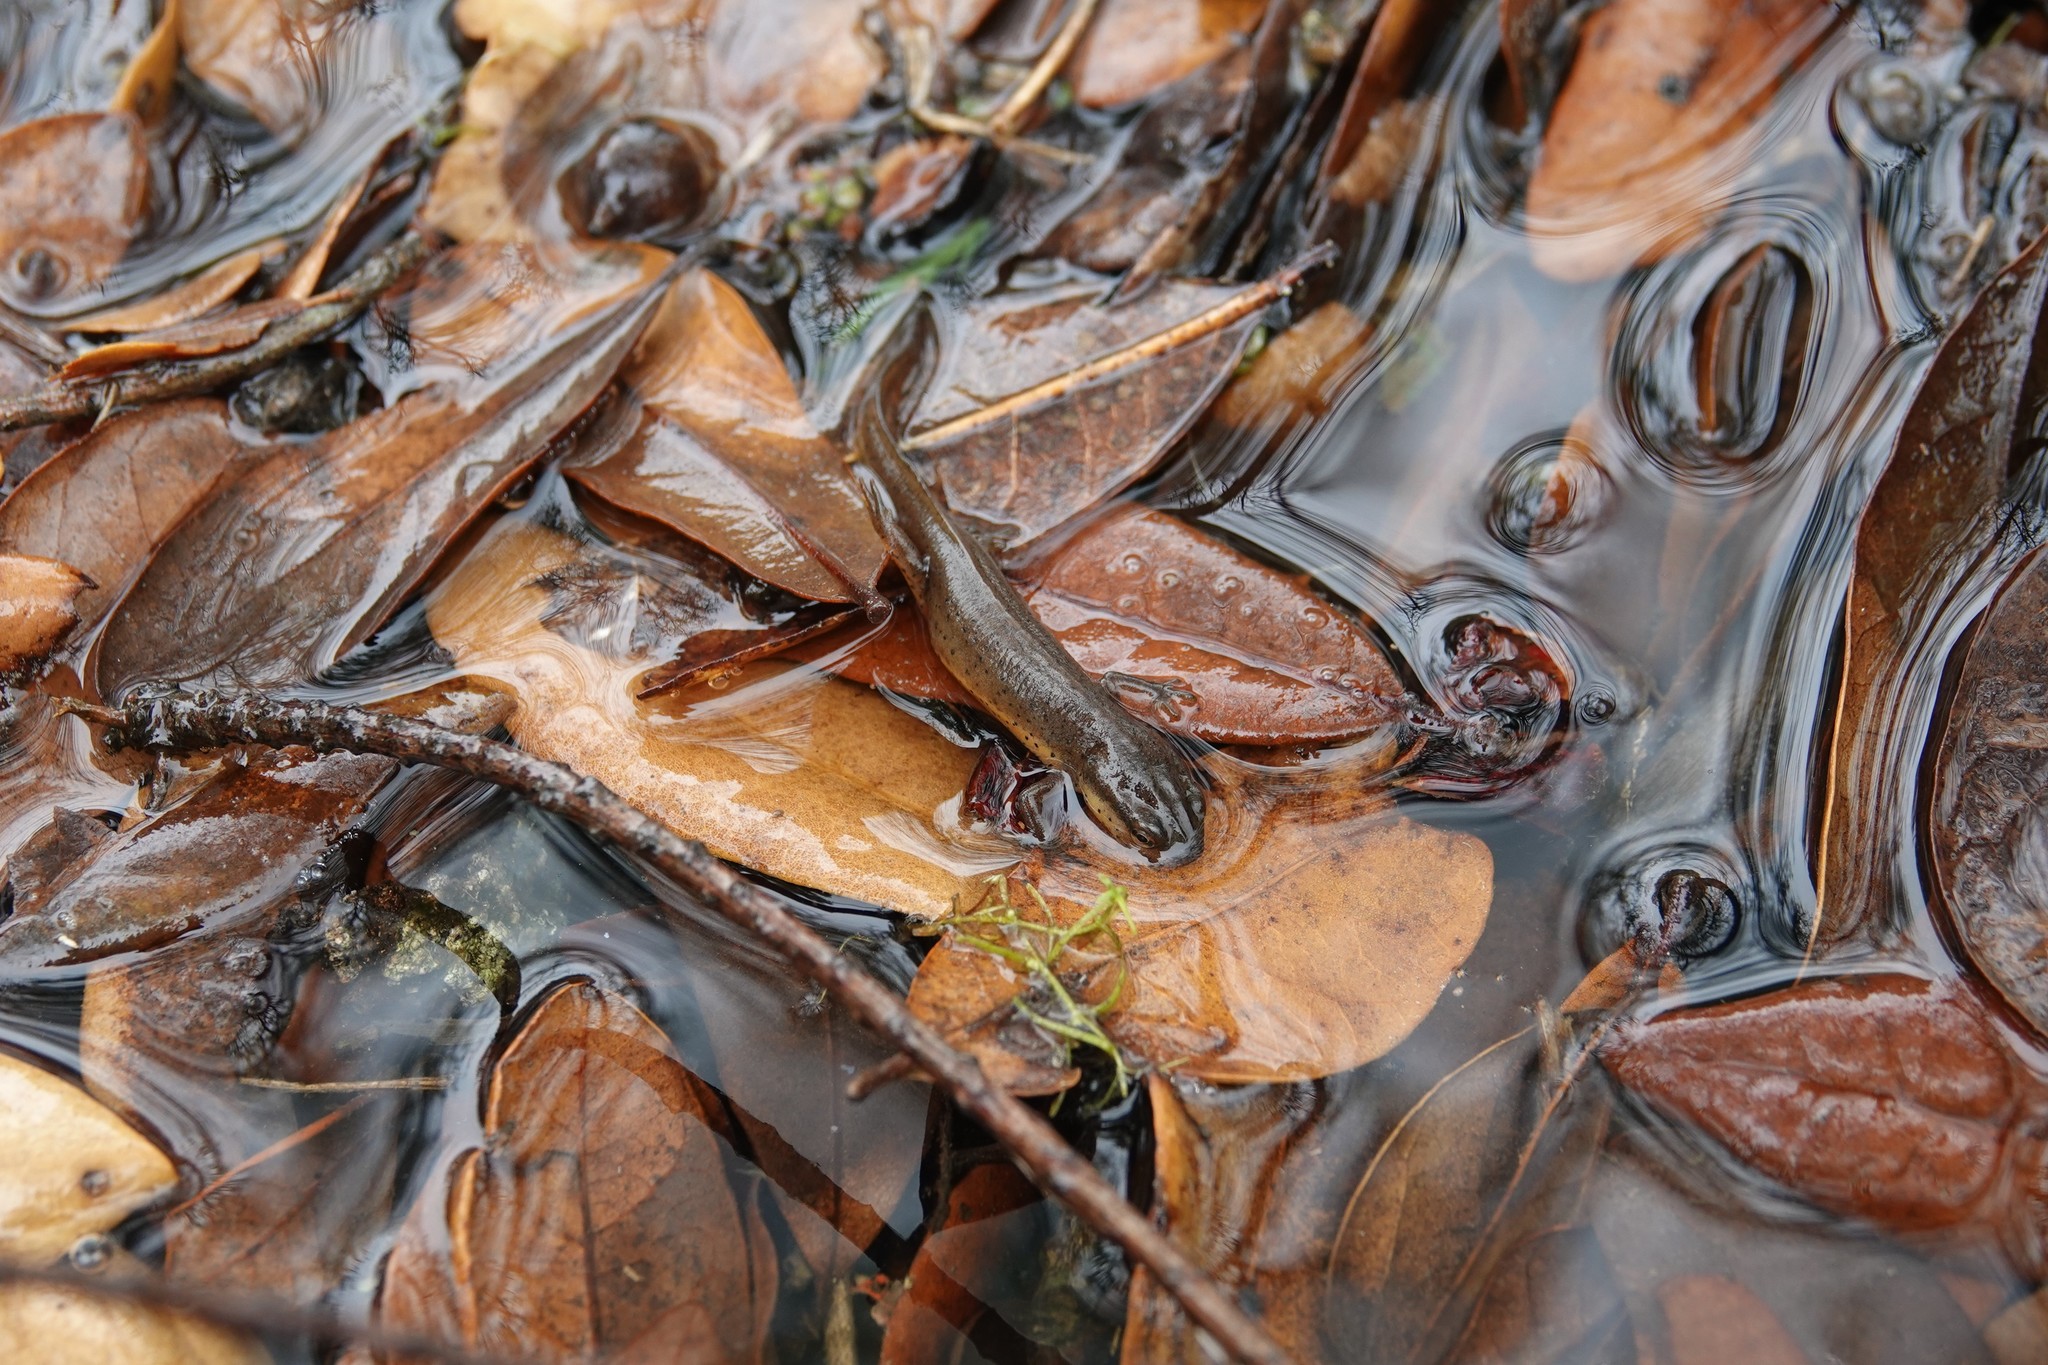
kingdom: Animalia
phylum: Chordata
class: Amphibia
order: Caudata
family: Salamandridae
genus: Notophthalmus
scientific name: Notophthalmus viridescens
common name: Eastern newt
